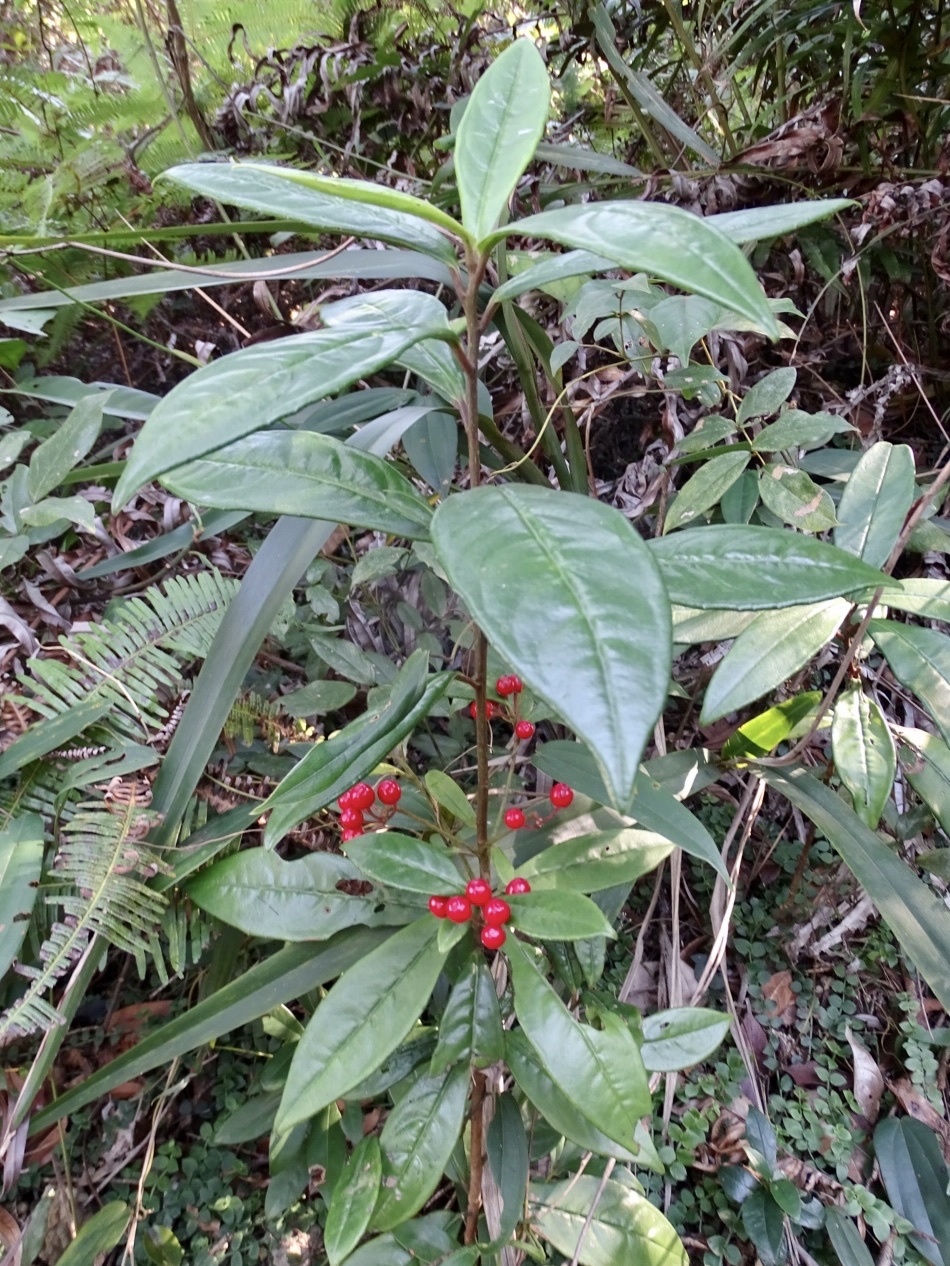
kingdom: Plantae
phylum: Tracheophyta
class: Magnoliopsida
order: Ericales
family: Primulaceae
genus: Ardisia
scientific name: Ardisia lindleyana
